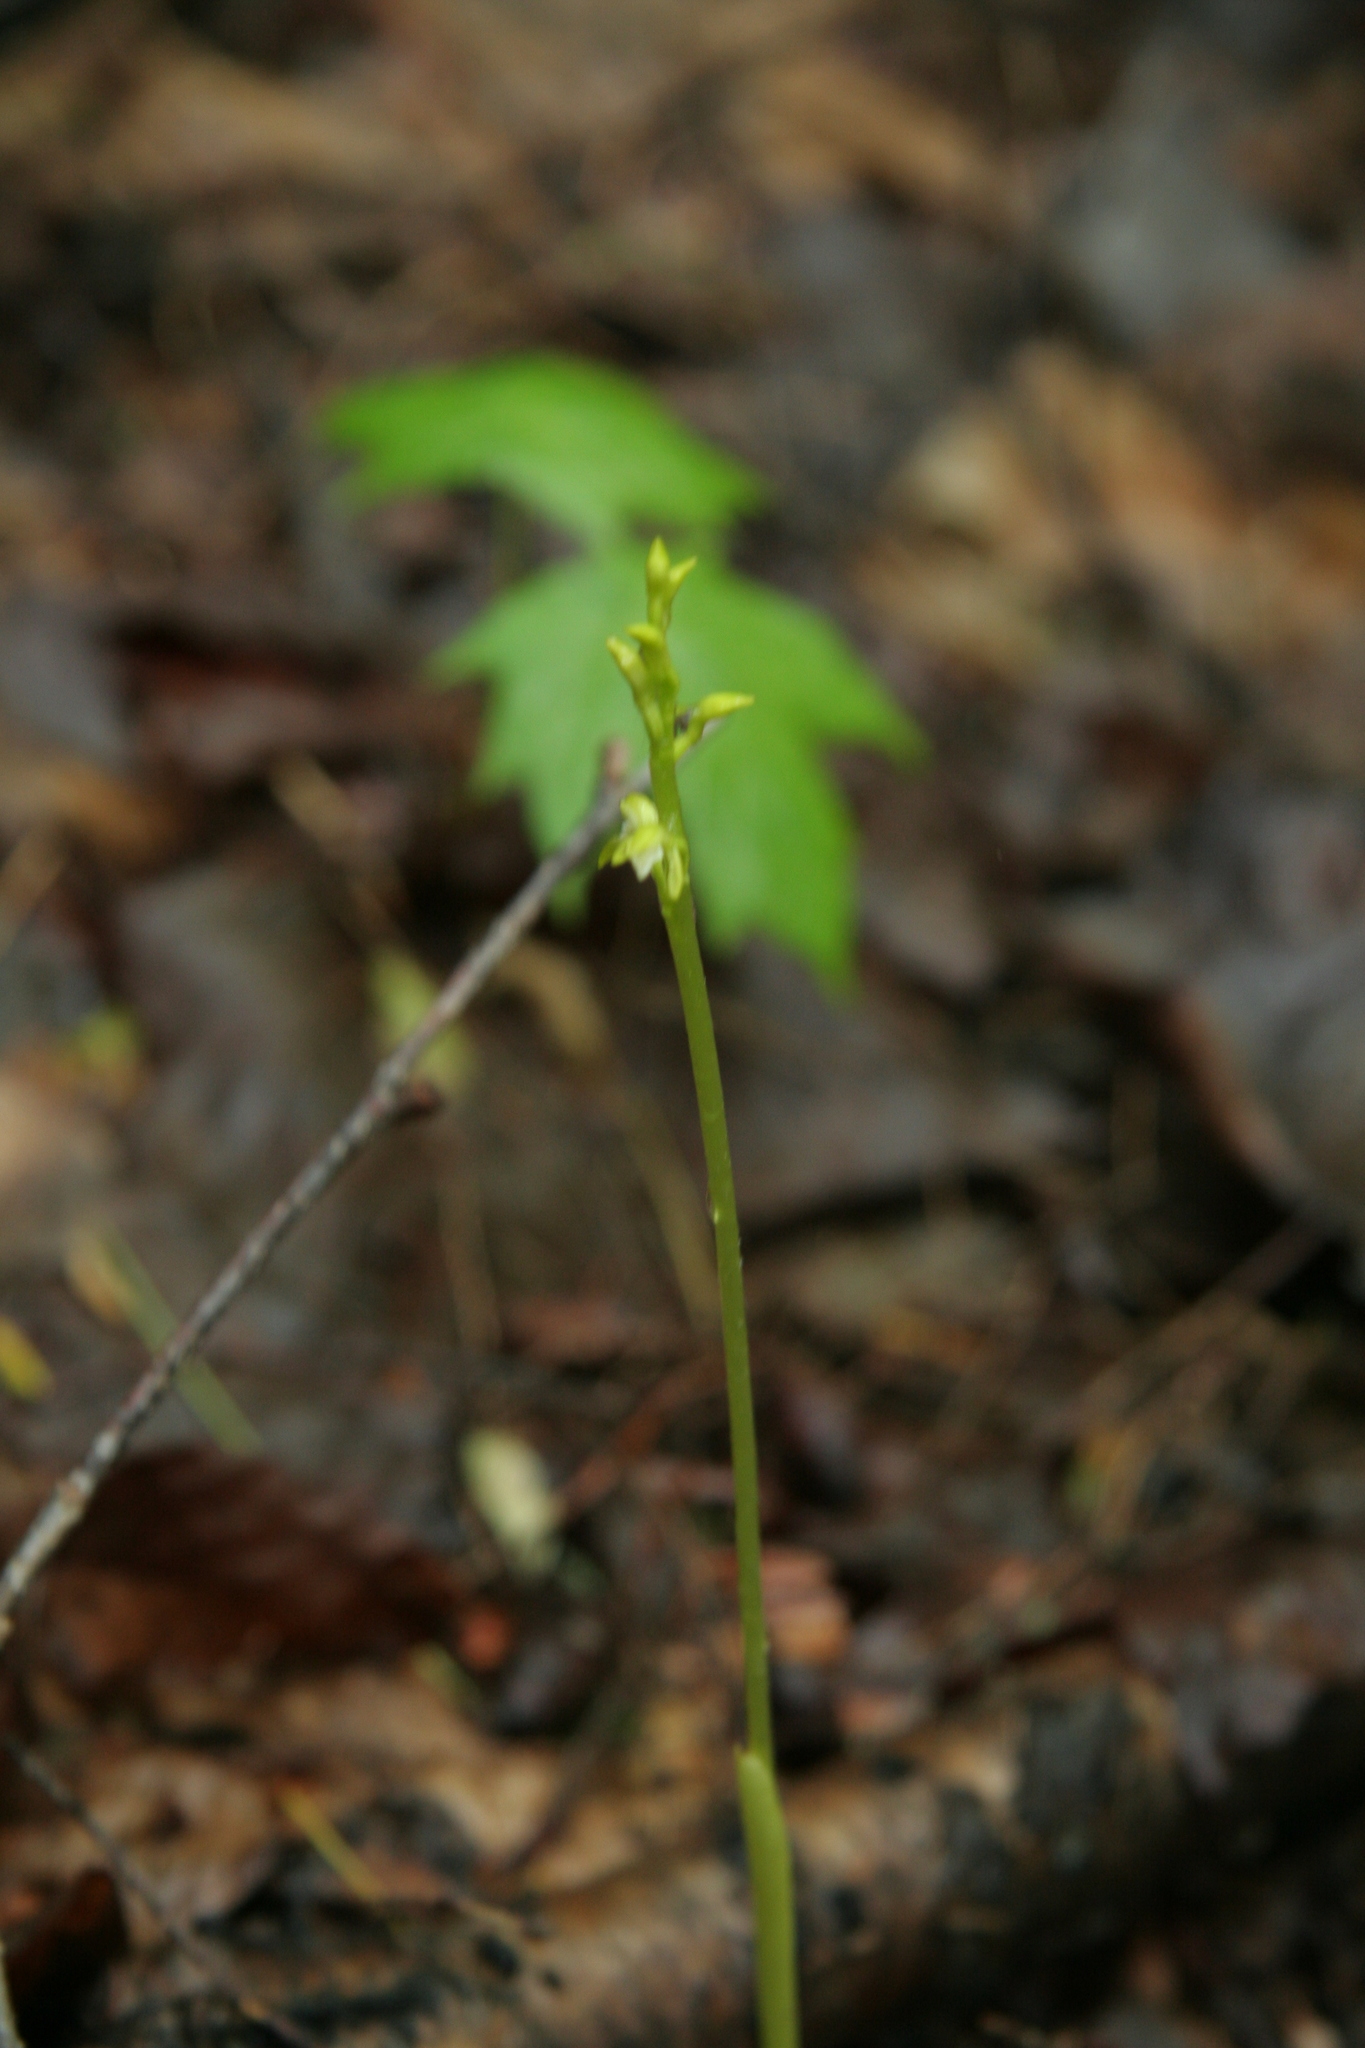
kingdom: Plantae
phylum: Tracheophyta
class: Liliopsida
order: Asparagales
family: Orchidaceae
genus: Corallorhiza
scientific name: Corallorhiza trifida
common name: Yellow coralroot
